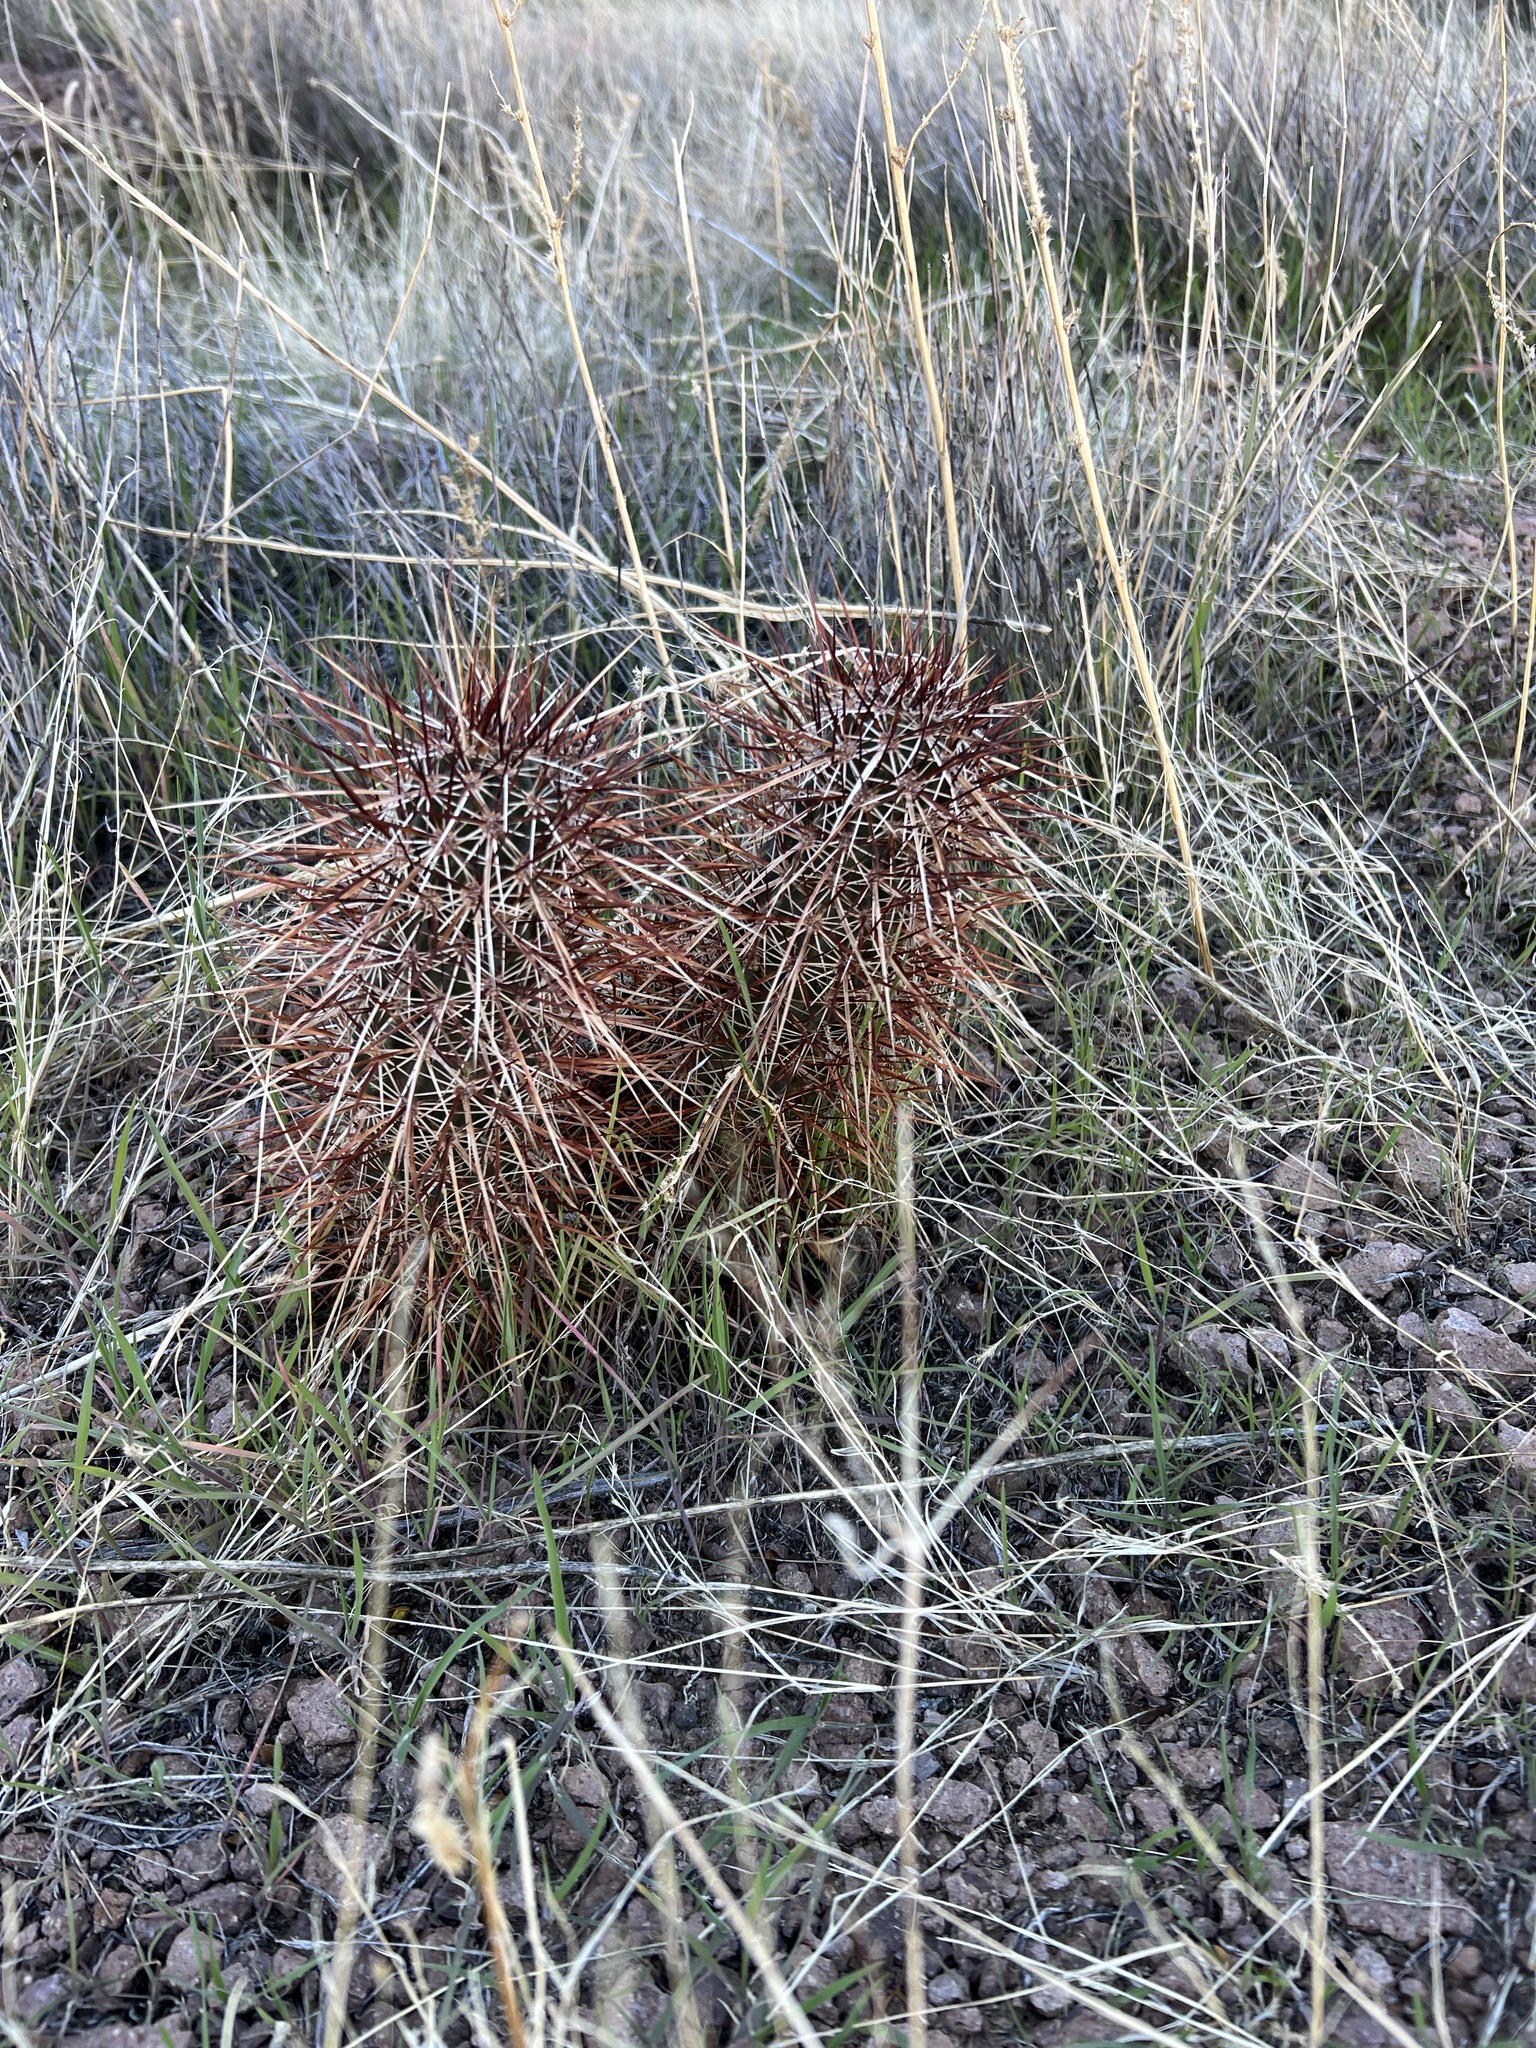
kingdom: Plantae
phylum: Tracheophyta
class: Magnoliopsida
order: Caryophyllales
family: Cactaceae
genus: Echinocereus
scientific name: Echinocereus engelmannii
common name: Engelmann's hedgehog cactus
